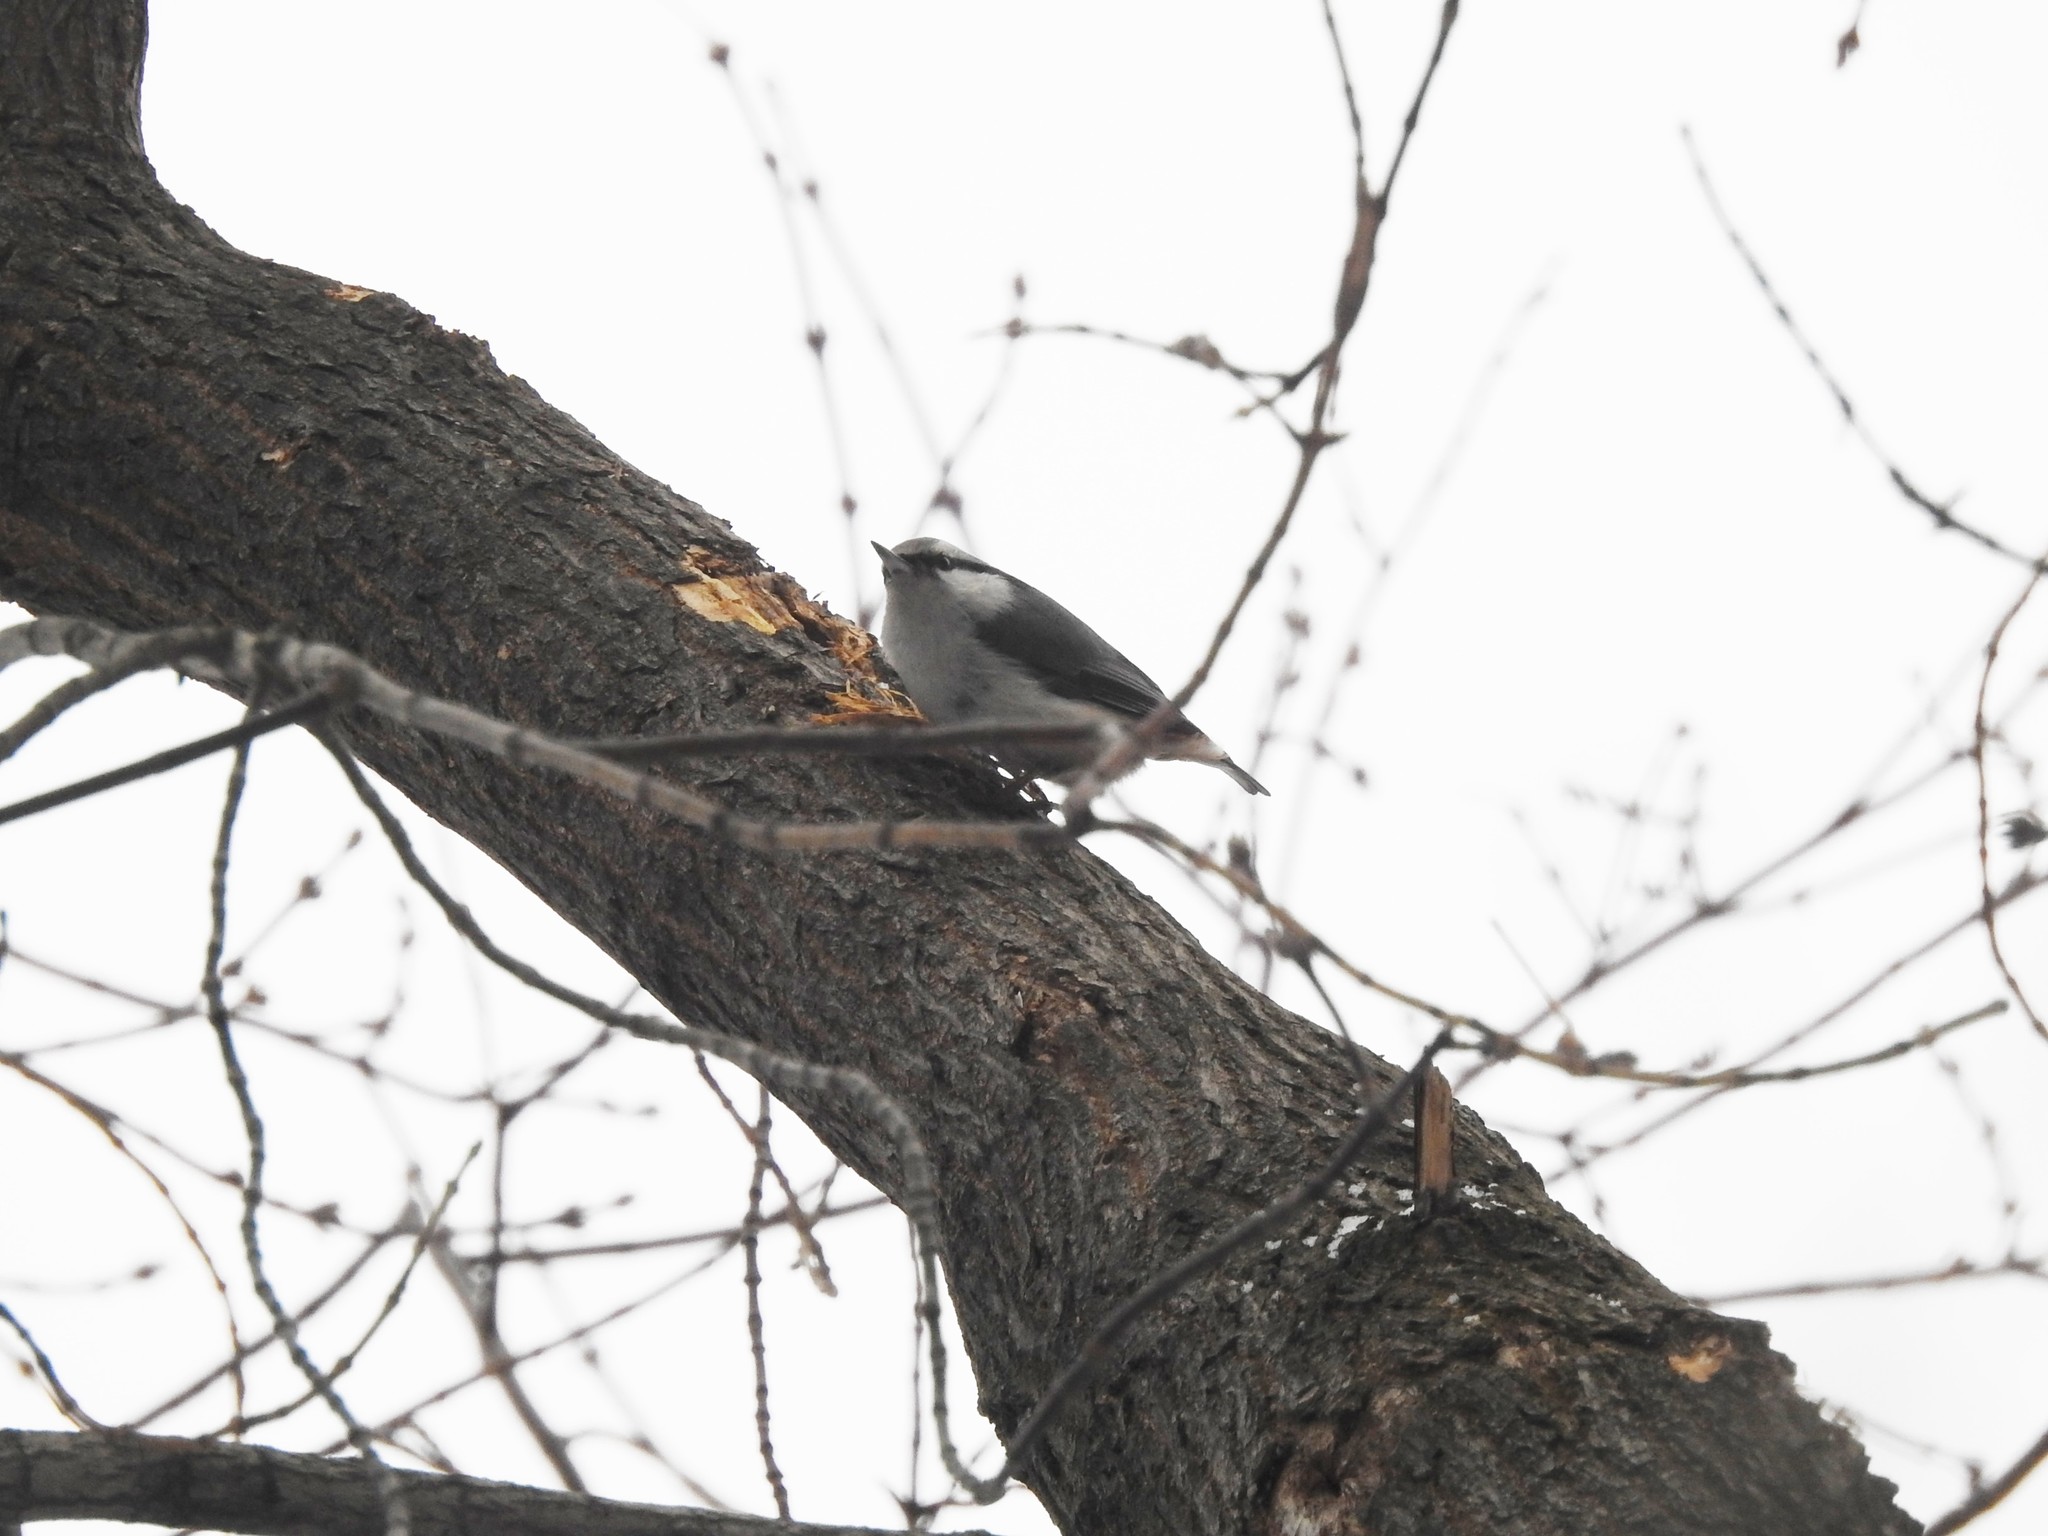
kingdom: Animalia
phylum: Chordata
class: Aves
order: Passeriformes
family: Sittidae
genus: Sitta
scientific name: Sitta europaea
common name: Eurasian nuthatch
